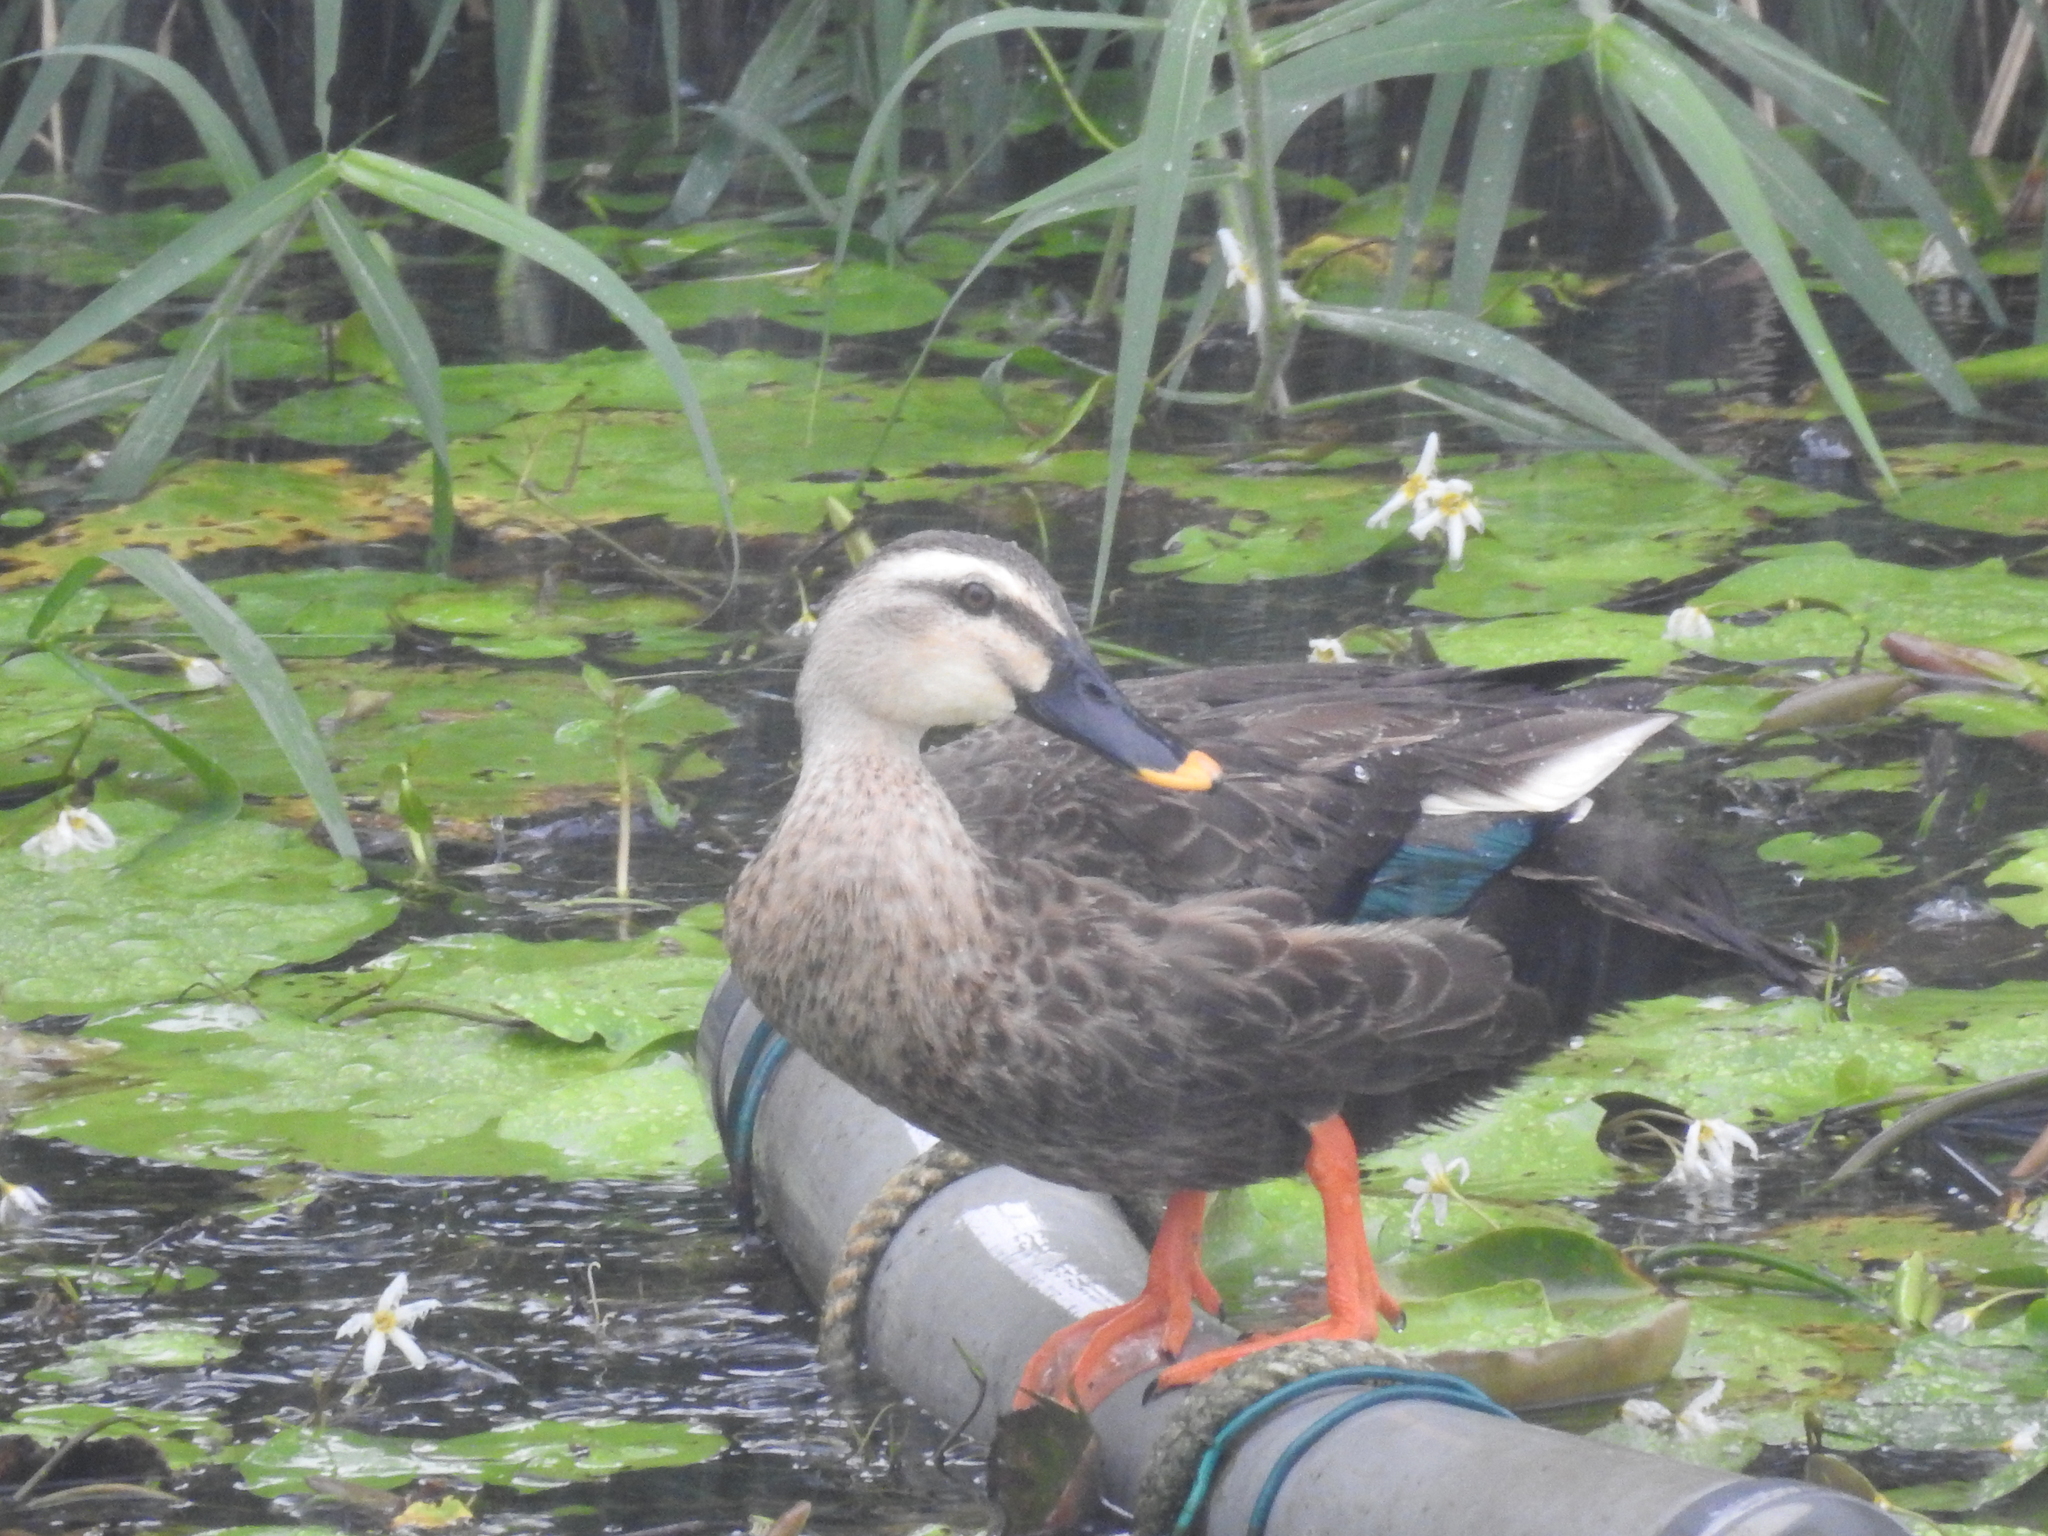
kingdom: Animalia
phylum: Chordata
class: Aves
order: Anseriformes
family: Anatidae
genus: Anas
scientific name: Anas zonorhyncha
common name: Eastern spot-billed duck
